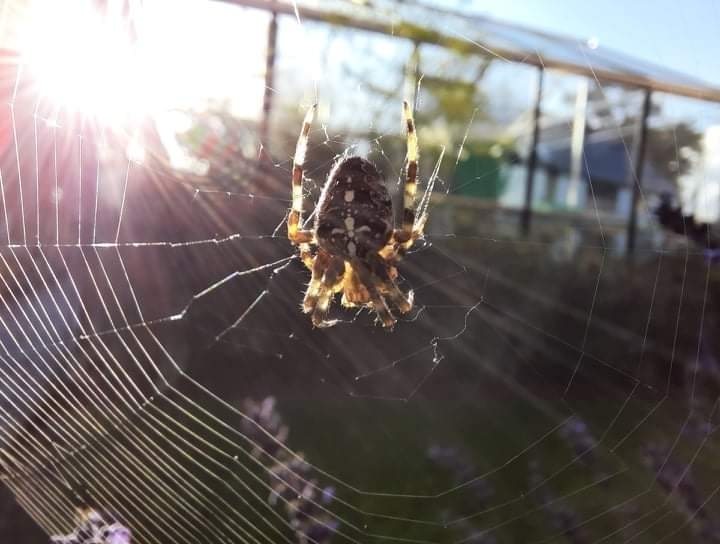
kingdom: Animalia
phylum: Arthropoda
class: Arachnida
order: Araneae
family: Araneidae
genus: Araneus
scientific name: Araneus diadematus
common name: Cross orbweaver
